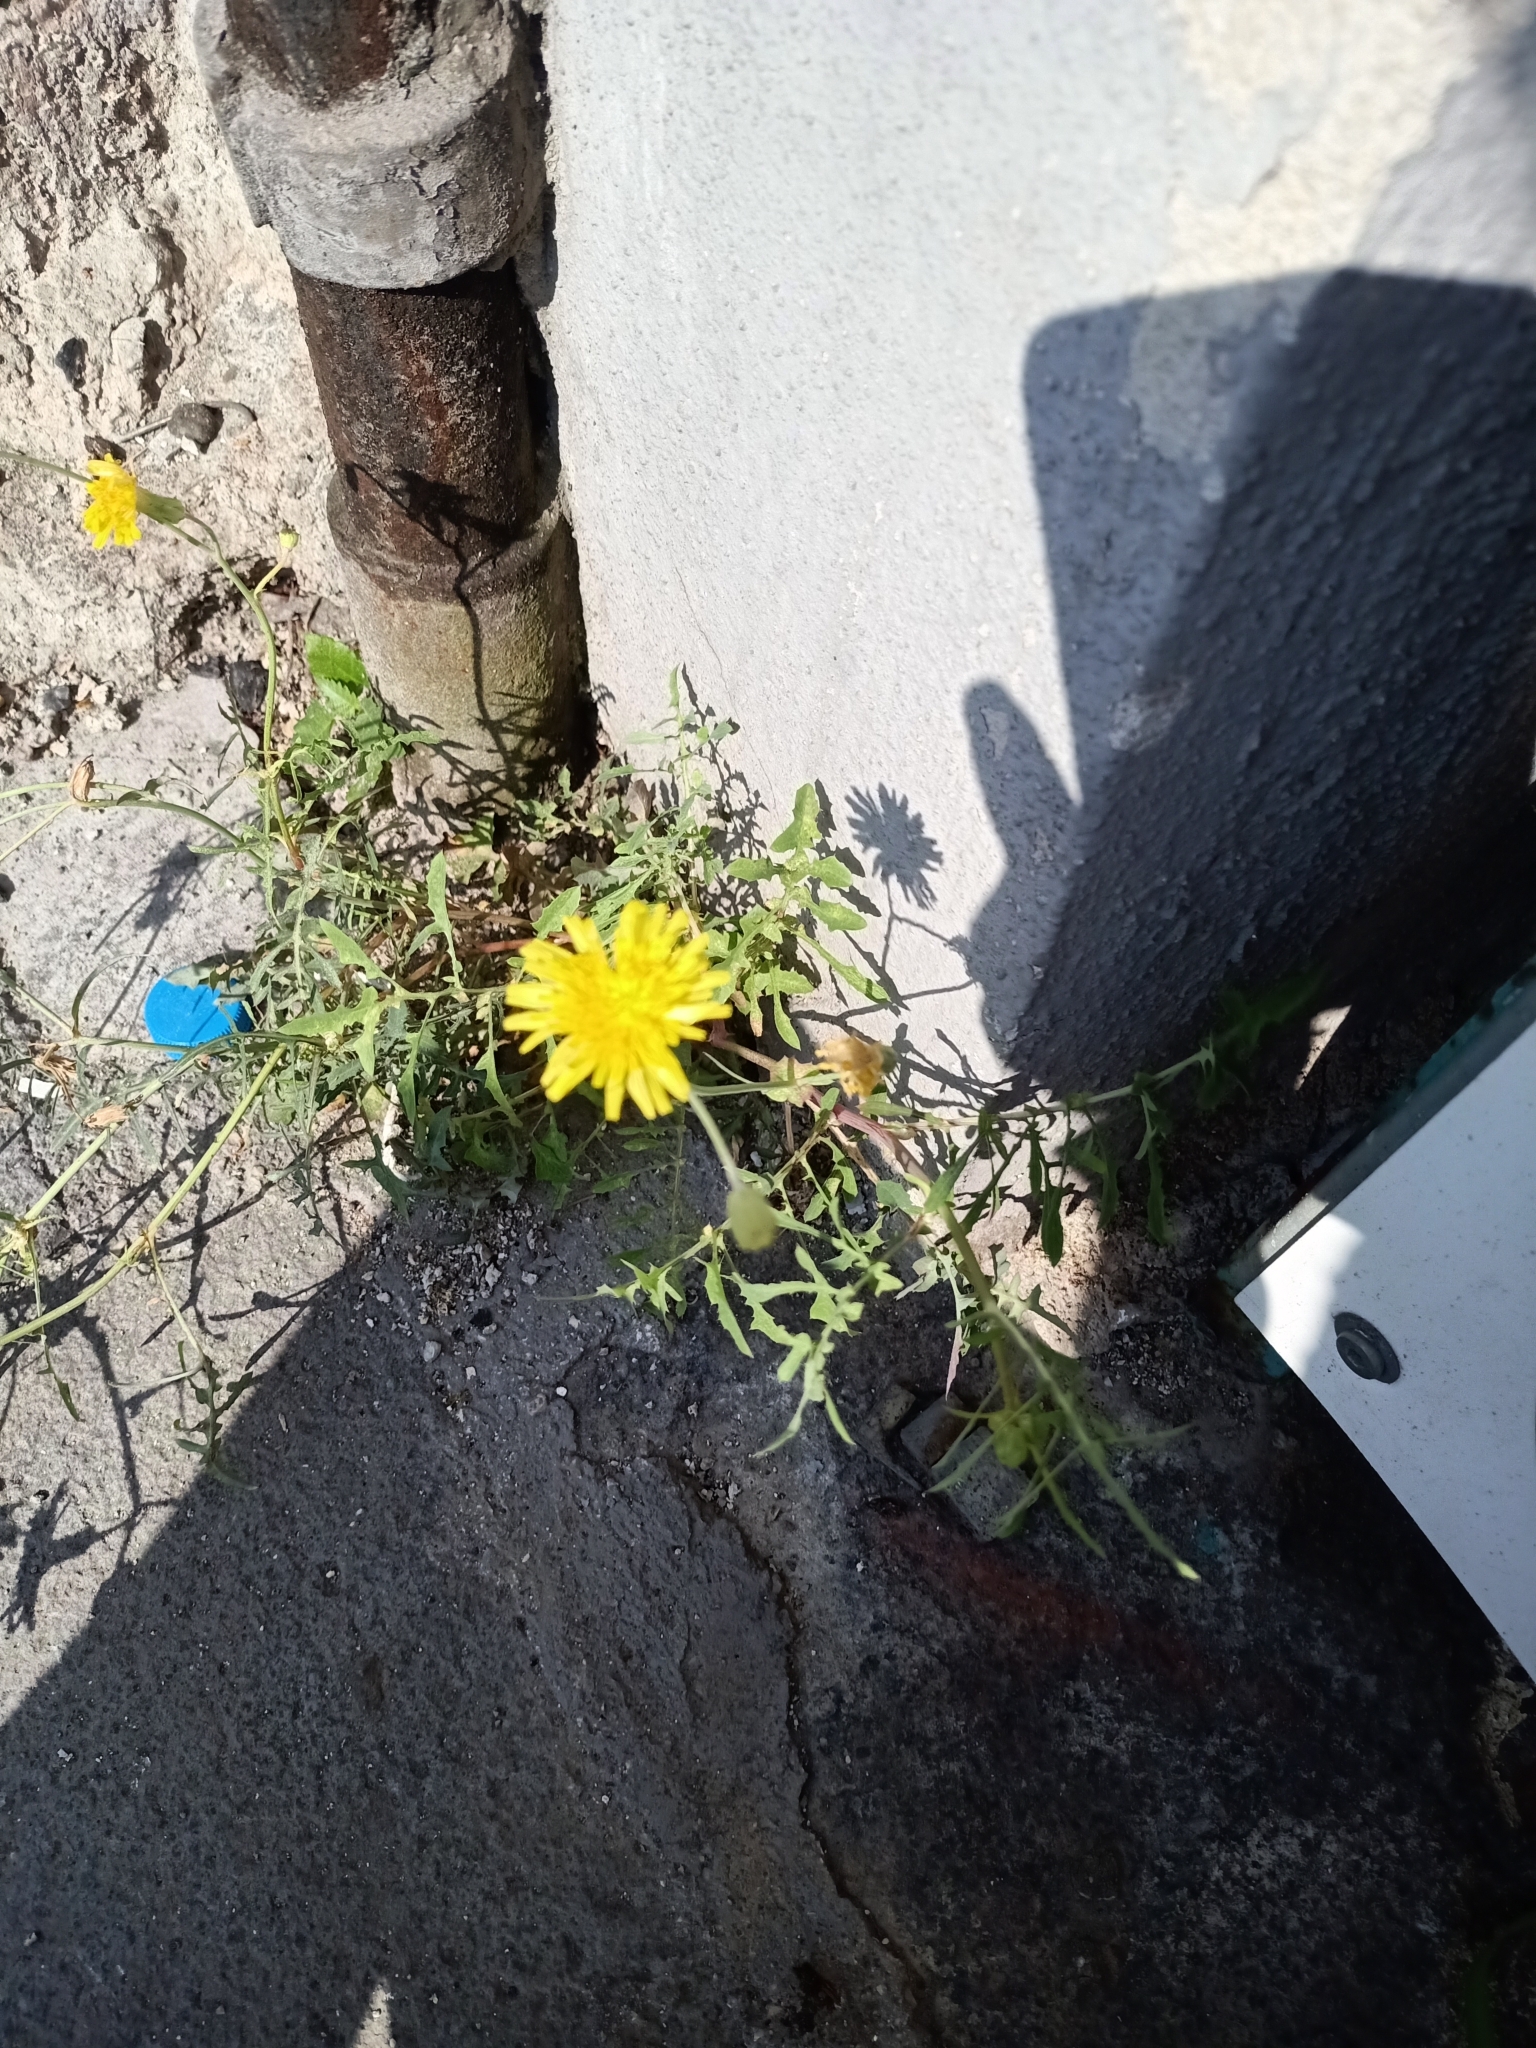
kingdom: Plantae
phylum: Tracheophyta
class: Magnoliopsida
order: Asterales
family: Asteraceae
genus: Sonchus
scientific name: Sonchus tenerrimus
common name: Clammy sowthistle
